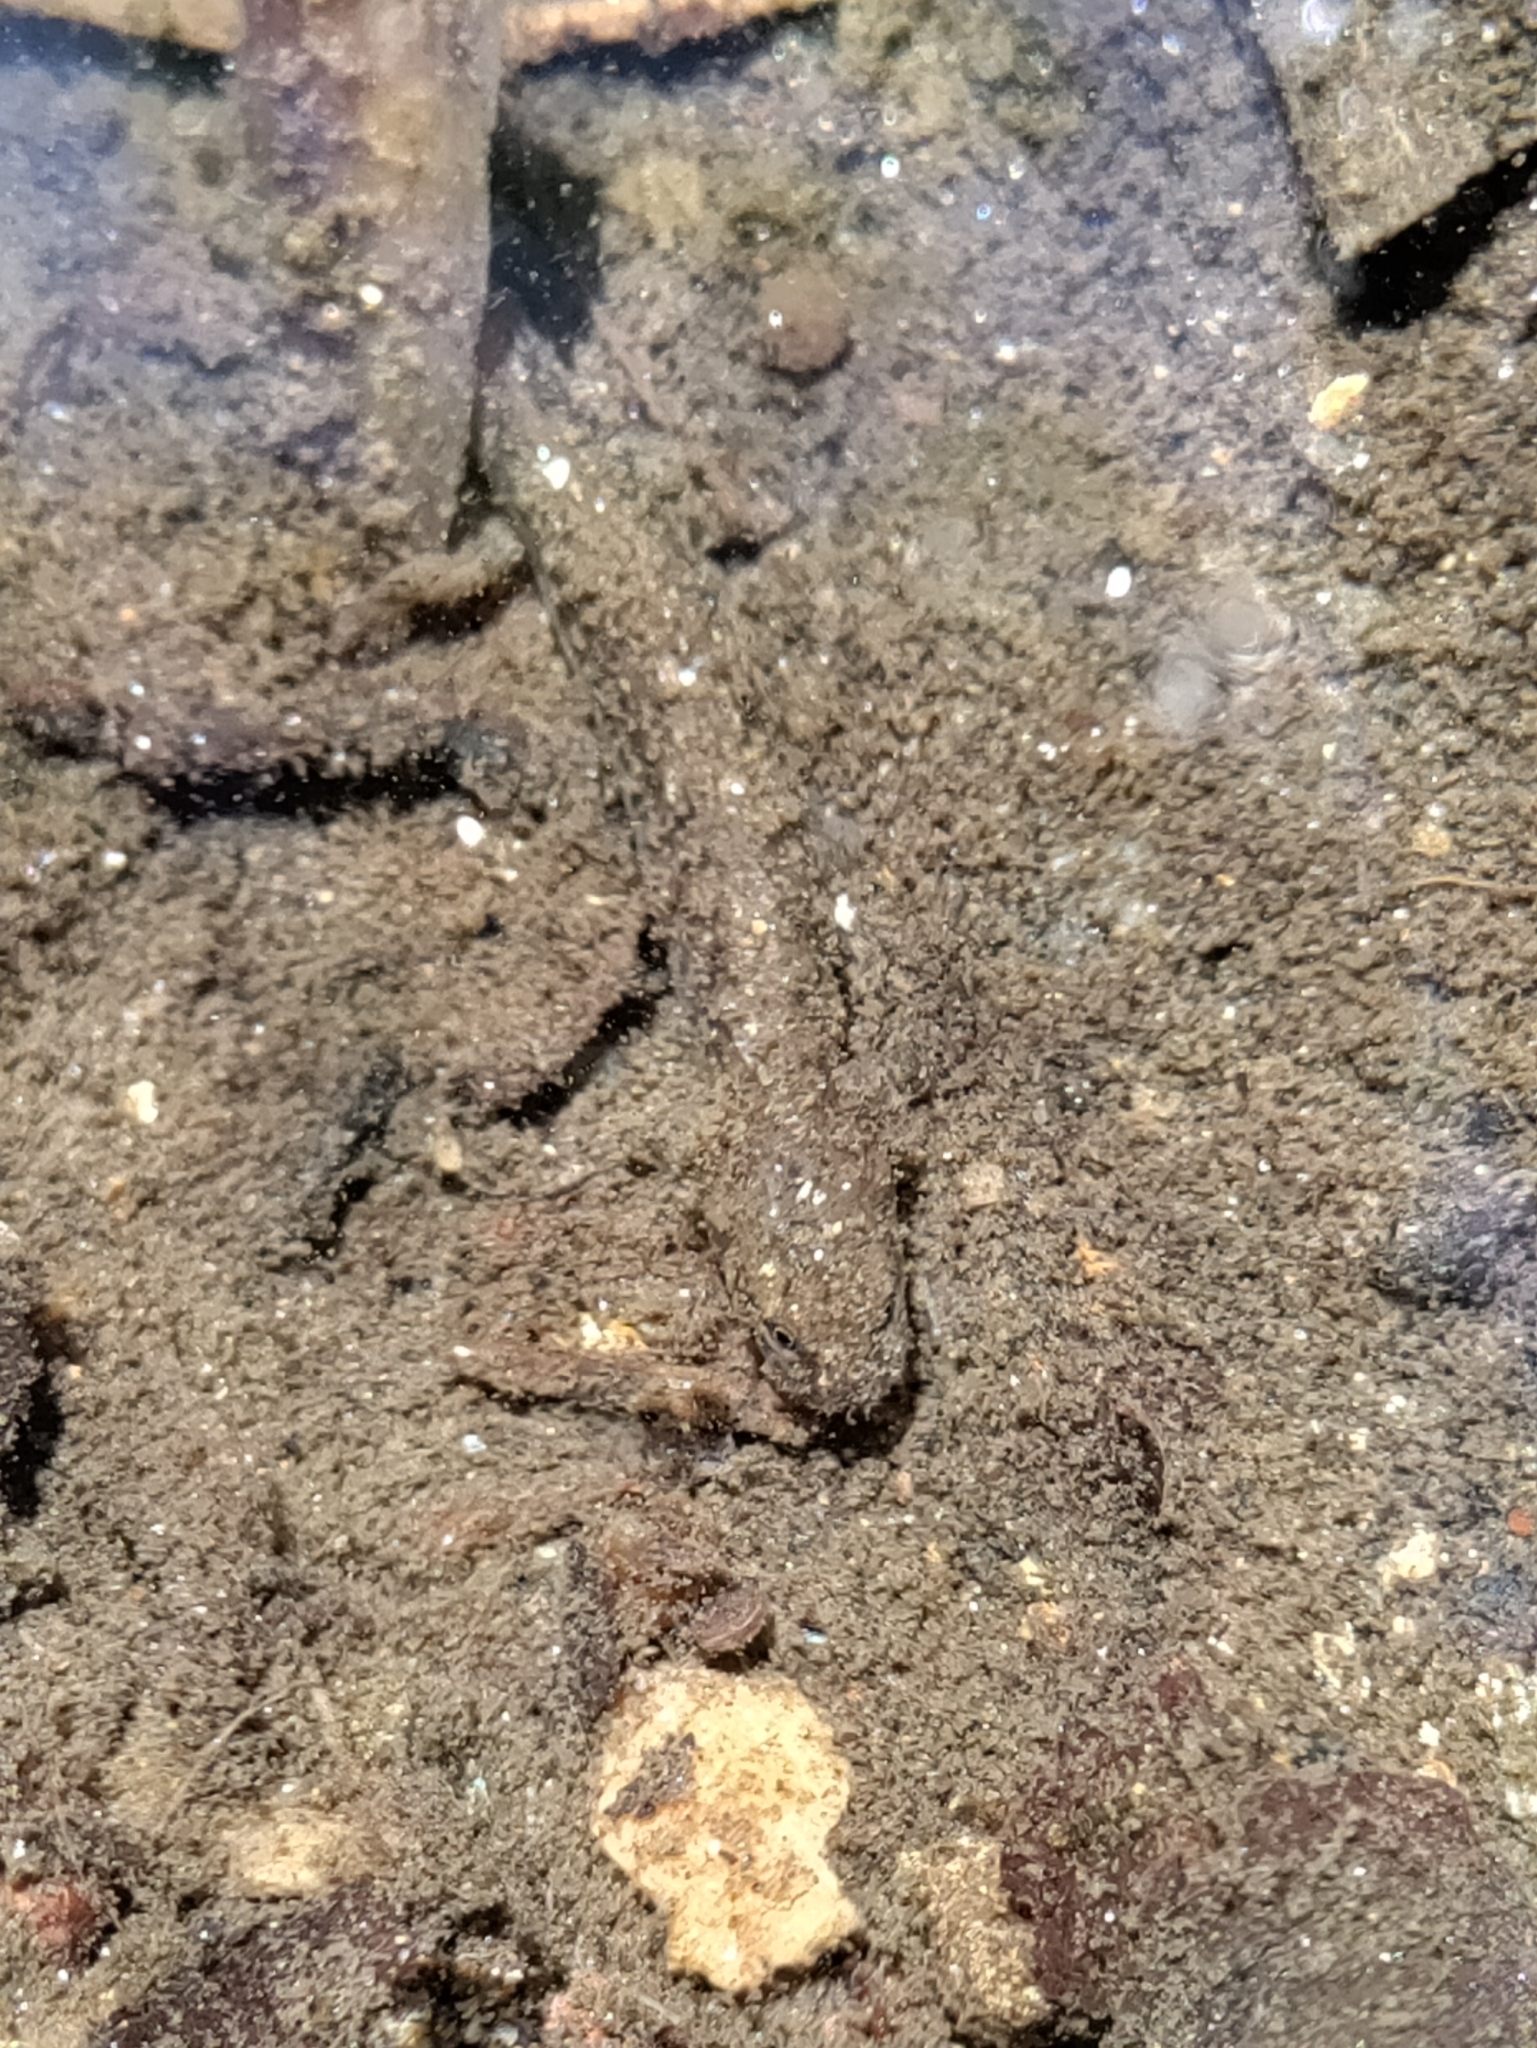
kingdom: Animalia
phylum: Chordata
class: Amphibia
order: Caudata
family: Plethodontidae
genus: Eurycea
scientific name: Eurycea bislineata
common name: Northern two-lined salamander
